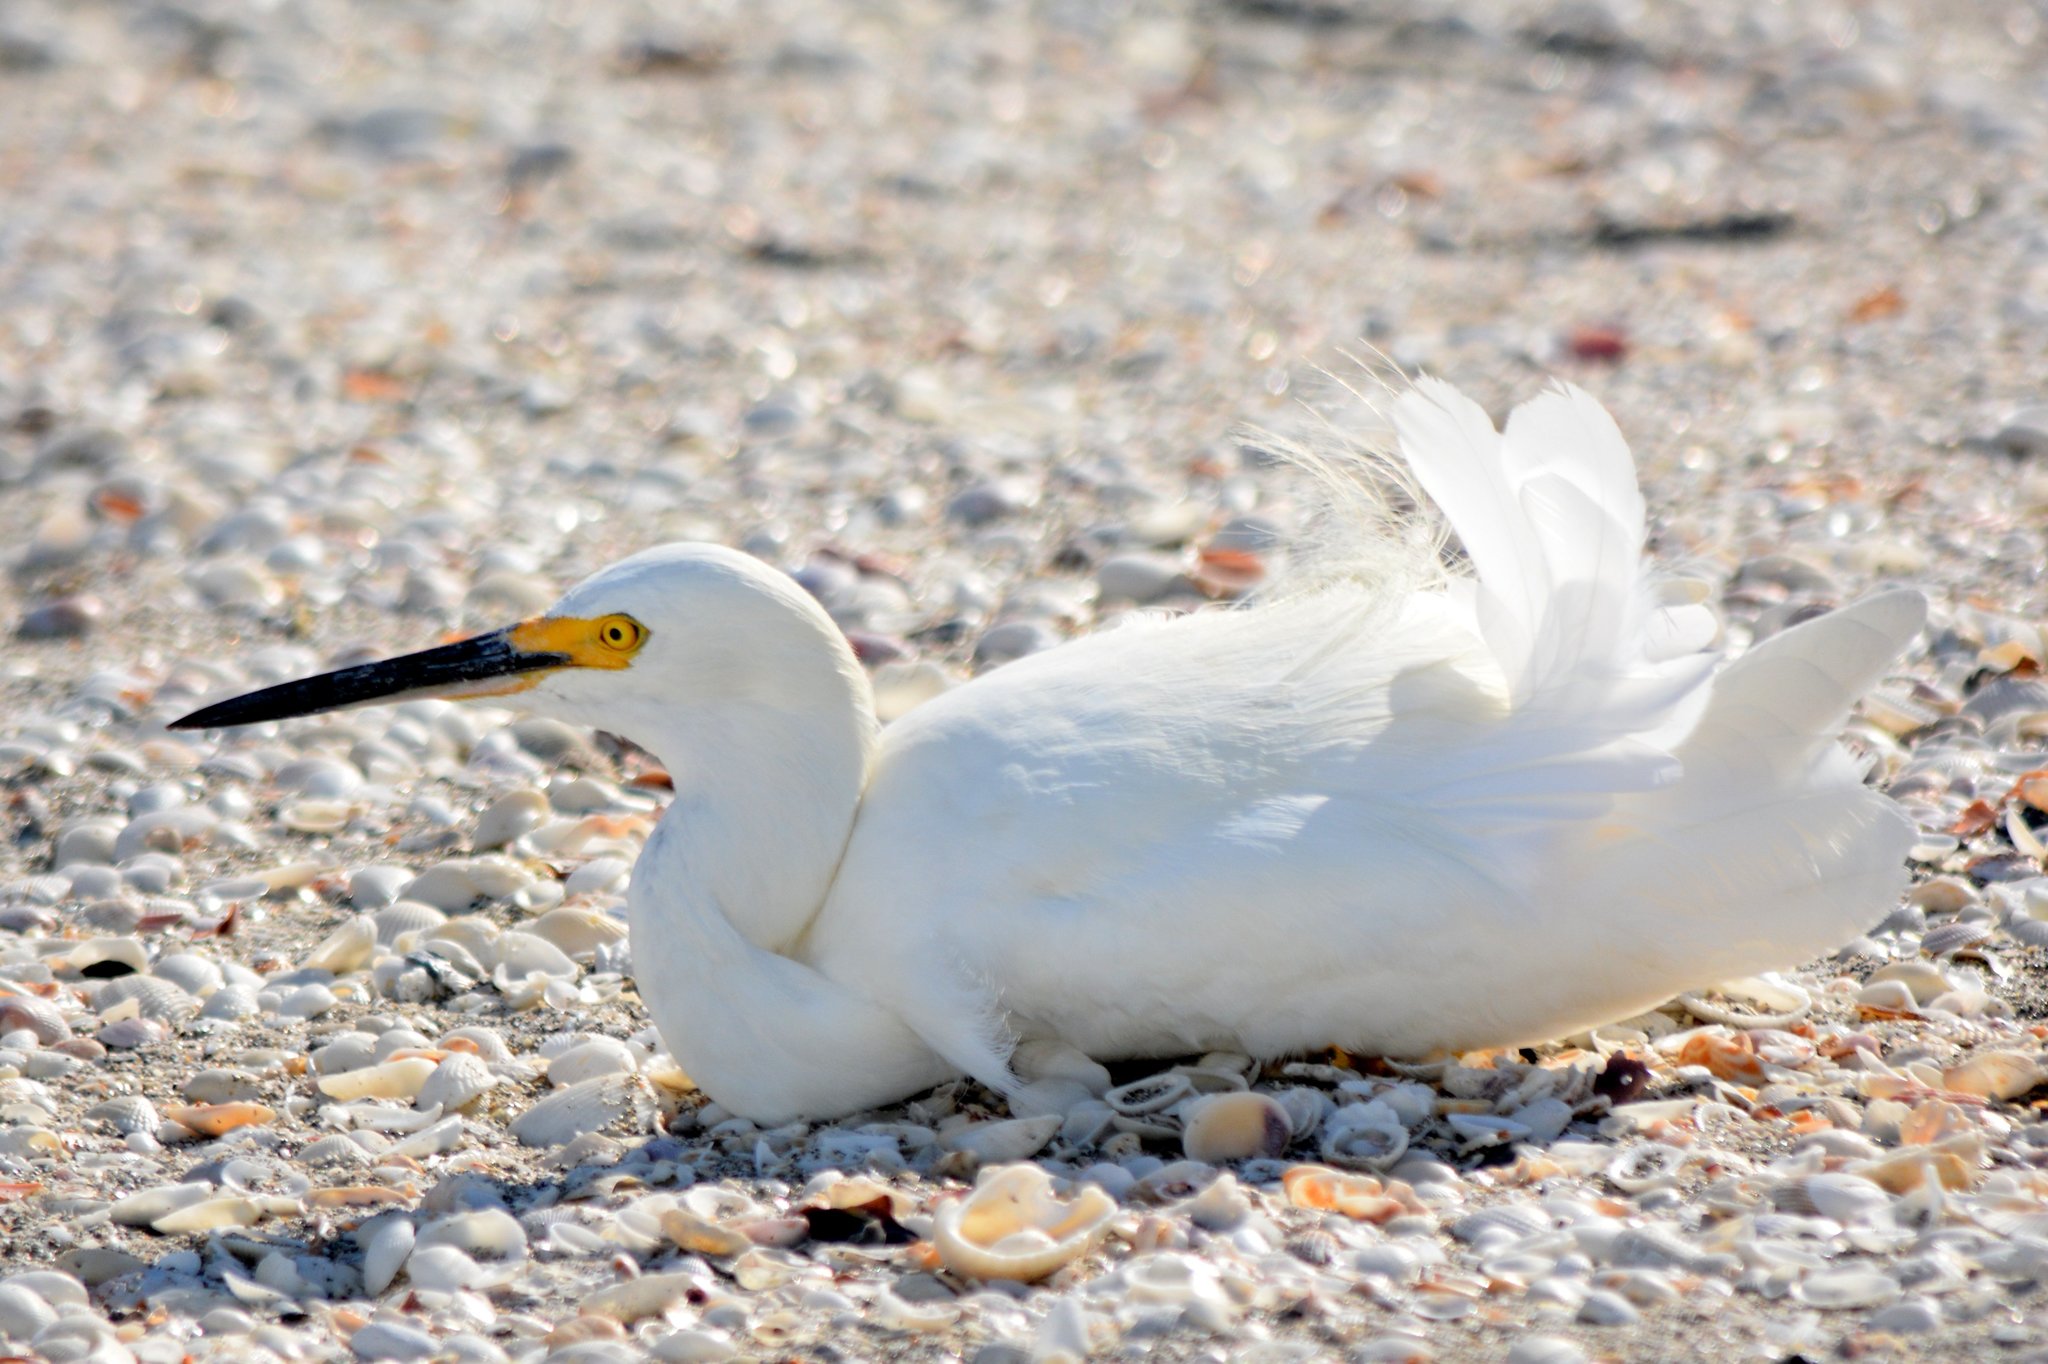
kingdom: Animalia
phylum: Chordata
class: Aves
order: Pelecaniformes
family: Ardeidae
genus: Egretta
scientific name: Egretta thula
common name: Snowy egret
